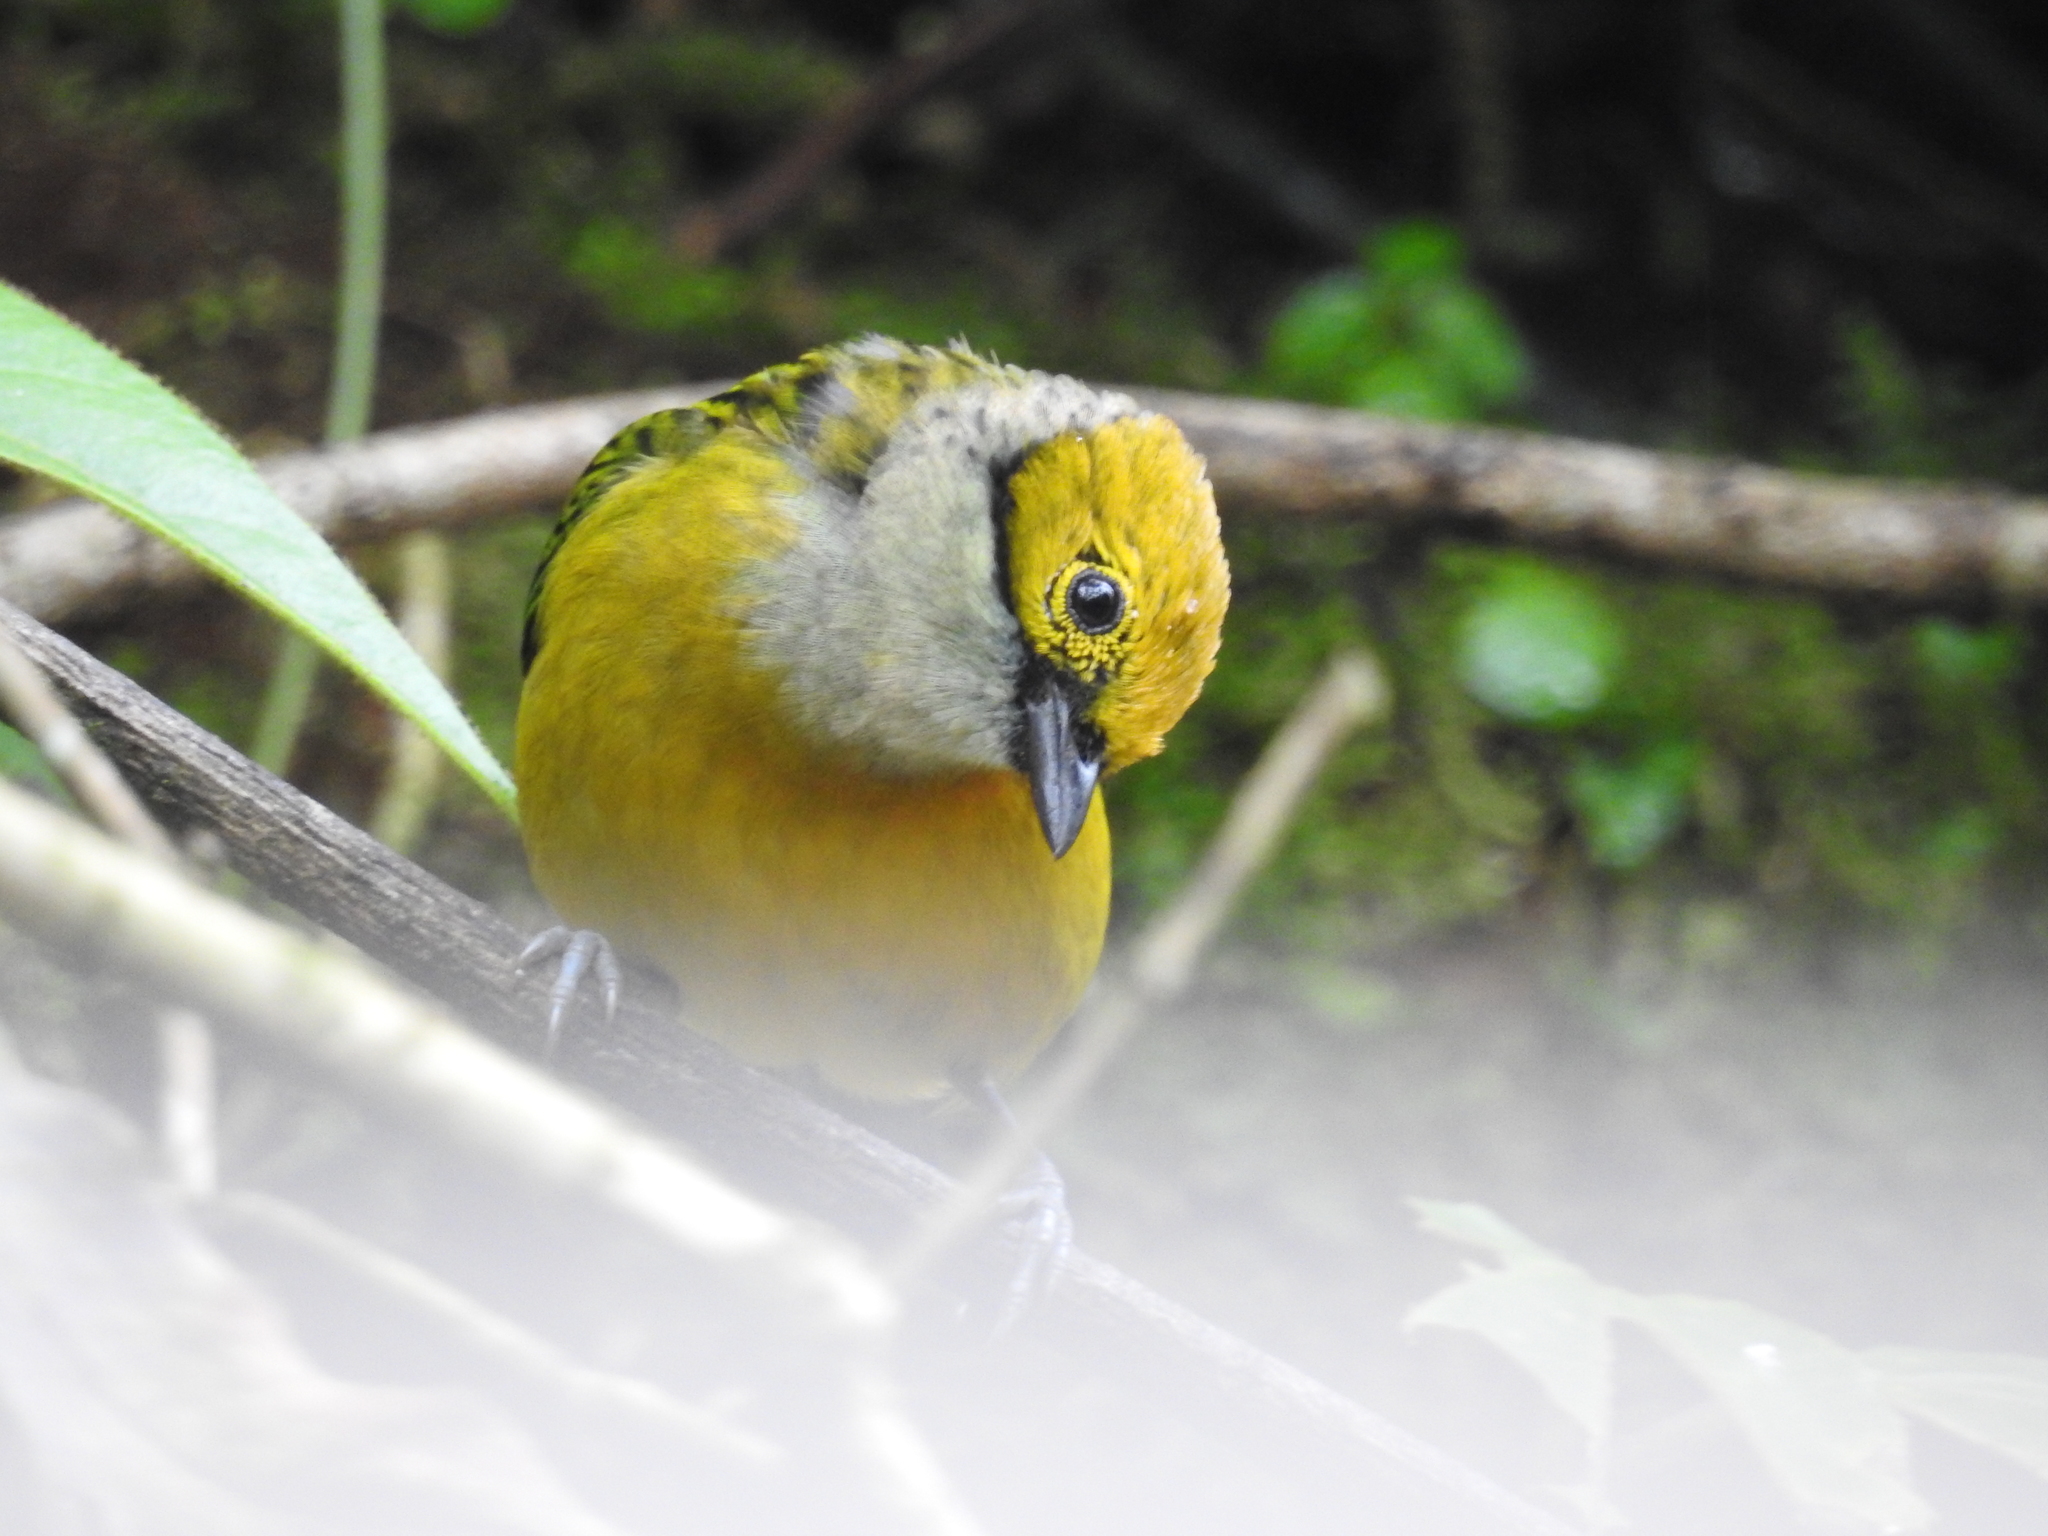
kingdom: Animalia
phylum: Chordata
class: Aves
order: Passeriformes
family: Thraupidae
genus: Tangara
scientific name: Tangara icterocephala
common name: Silver-throated tanager
